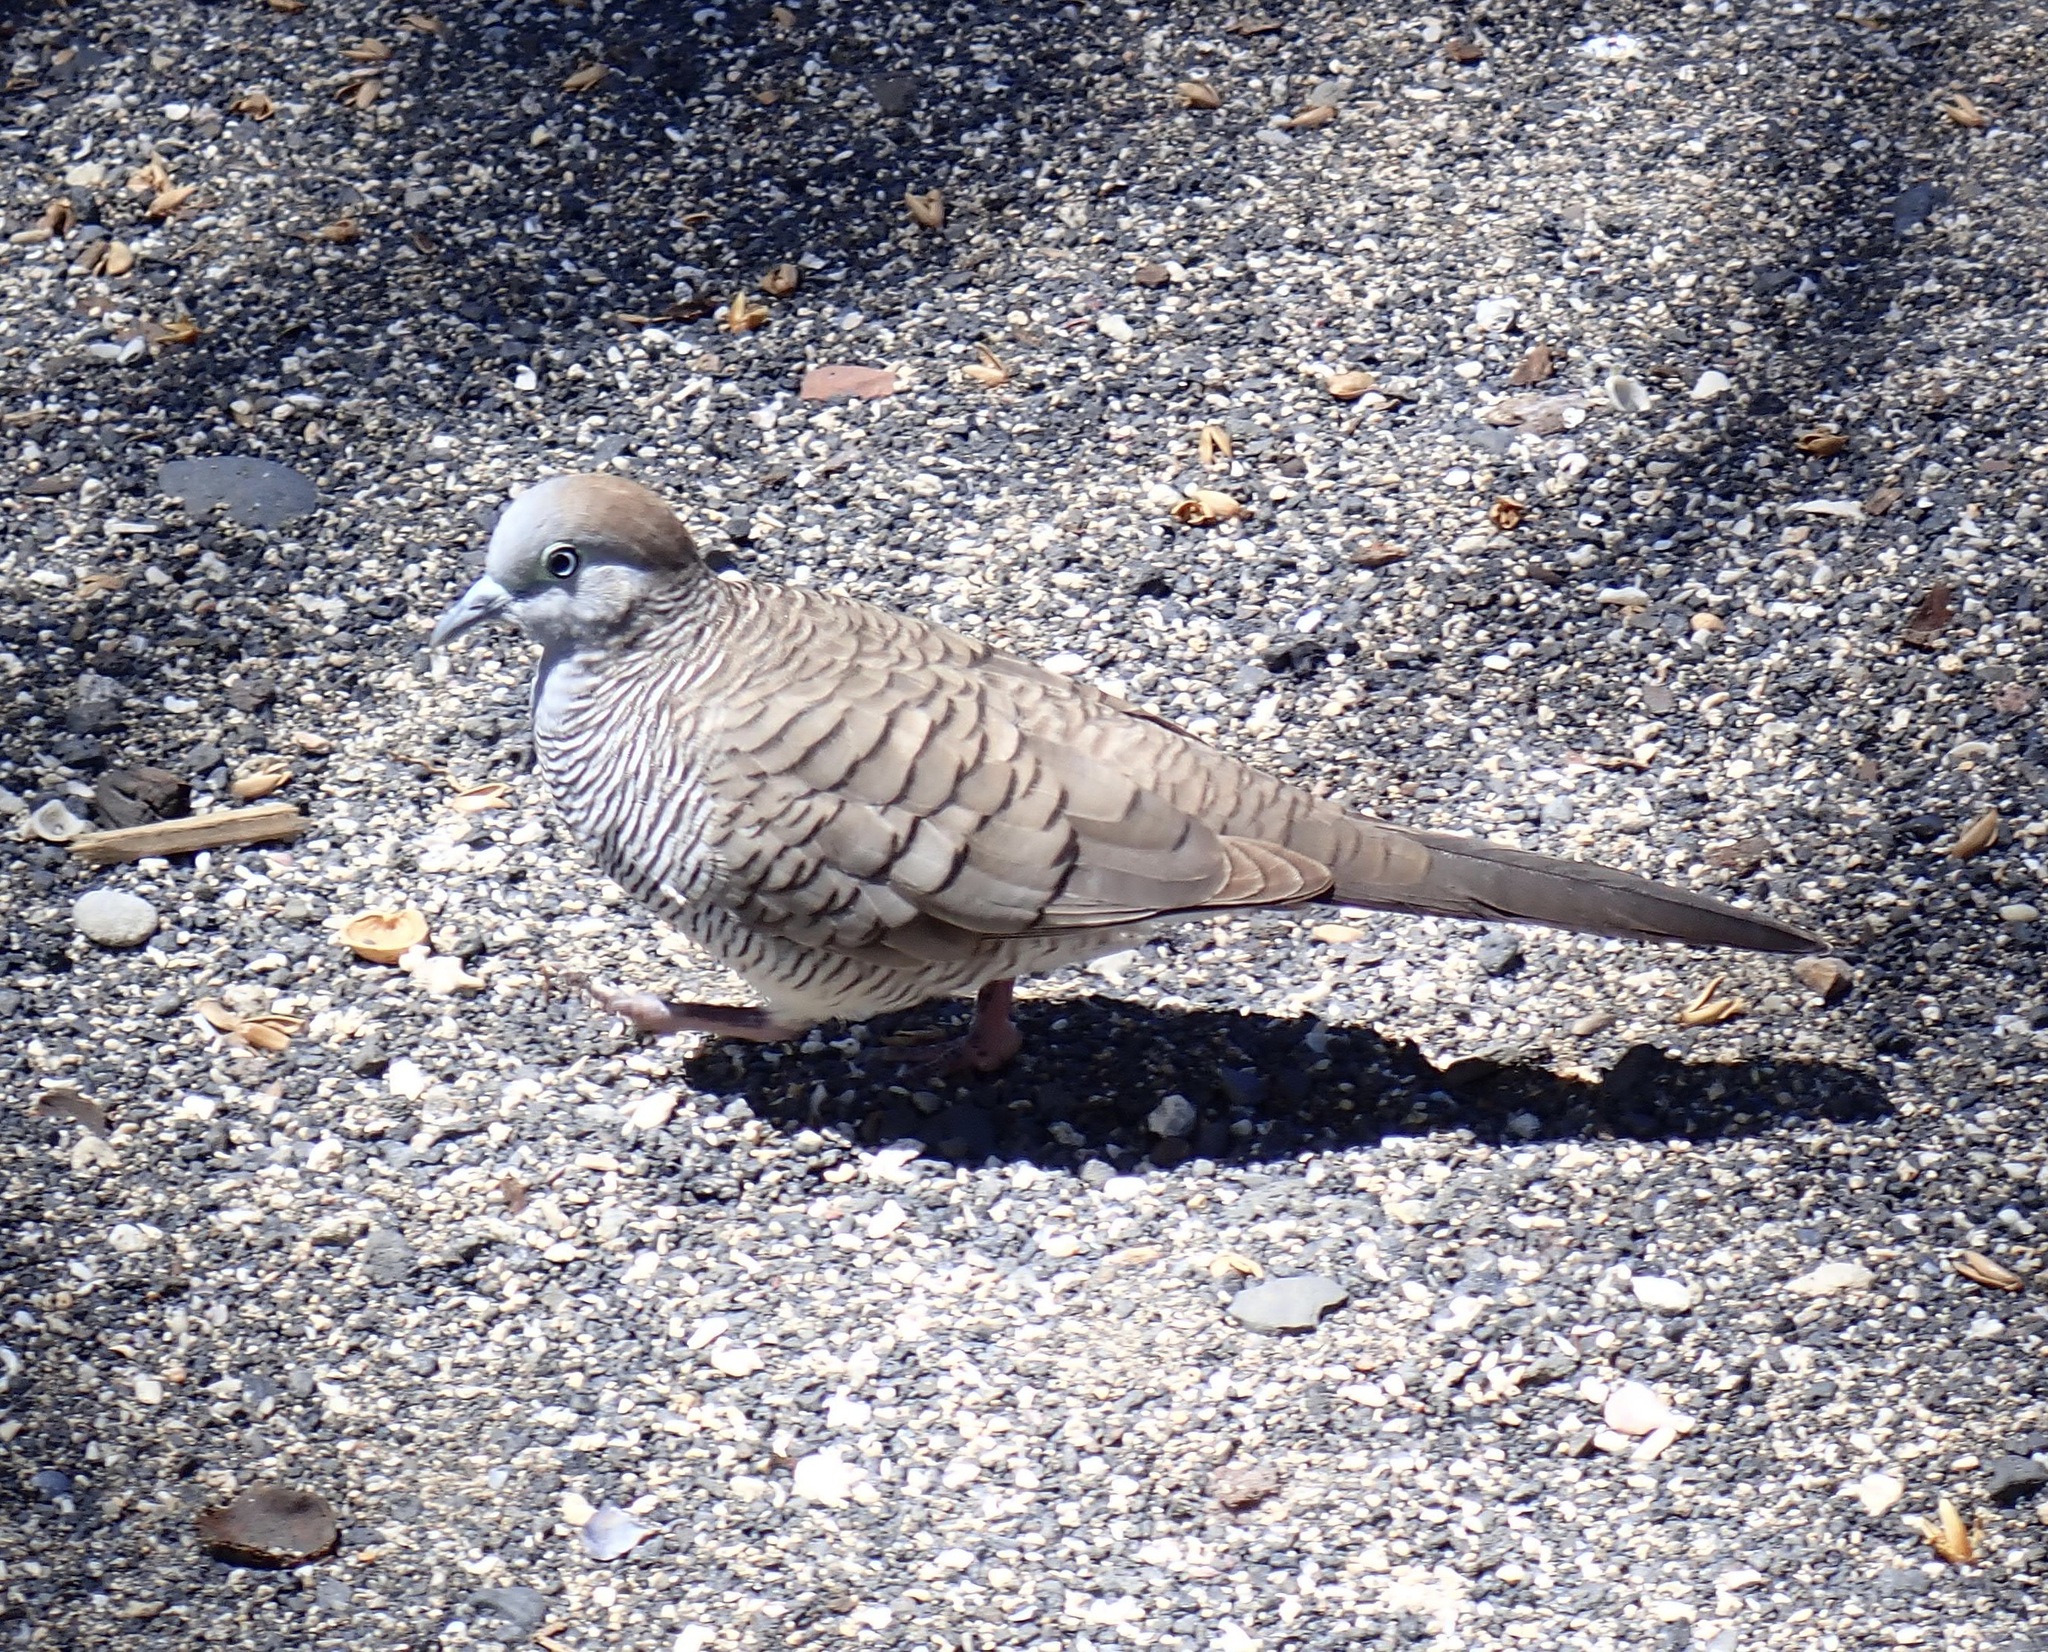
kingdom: Animalia
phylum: Chordata
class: Aves
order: Columbiformes
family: Columbidae
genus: Geopelia
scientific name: Geopelia striata
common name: Zebra dove
